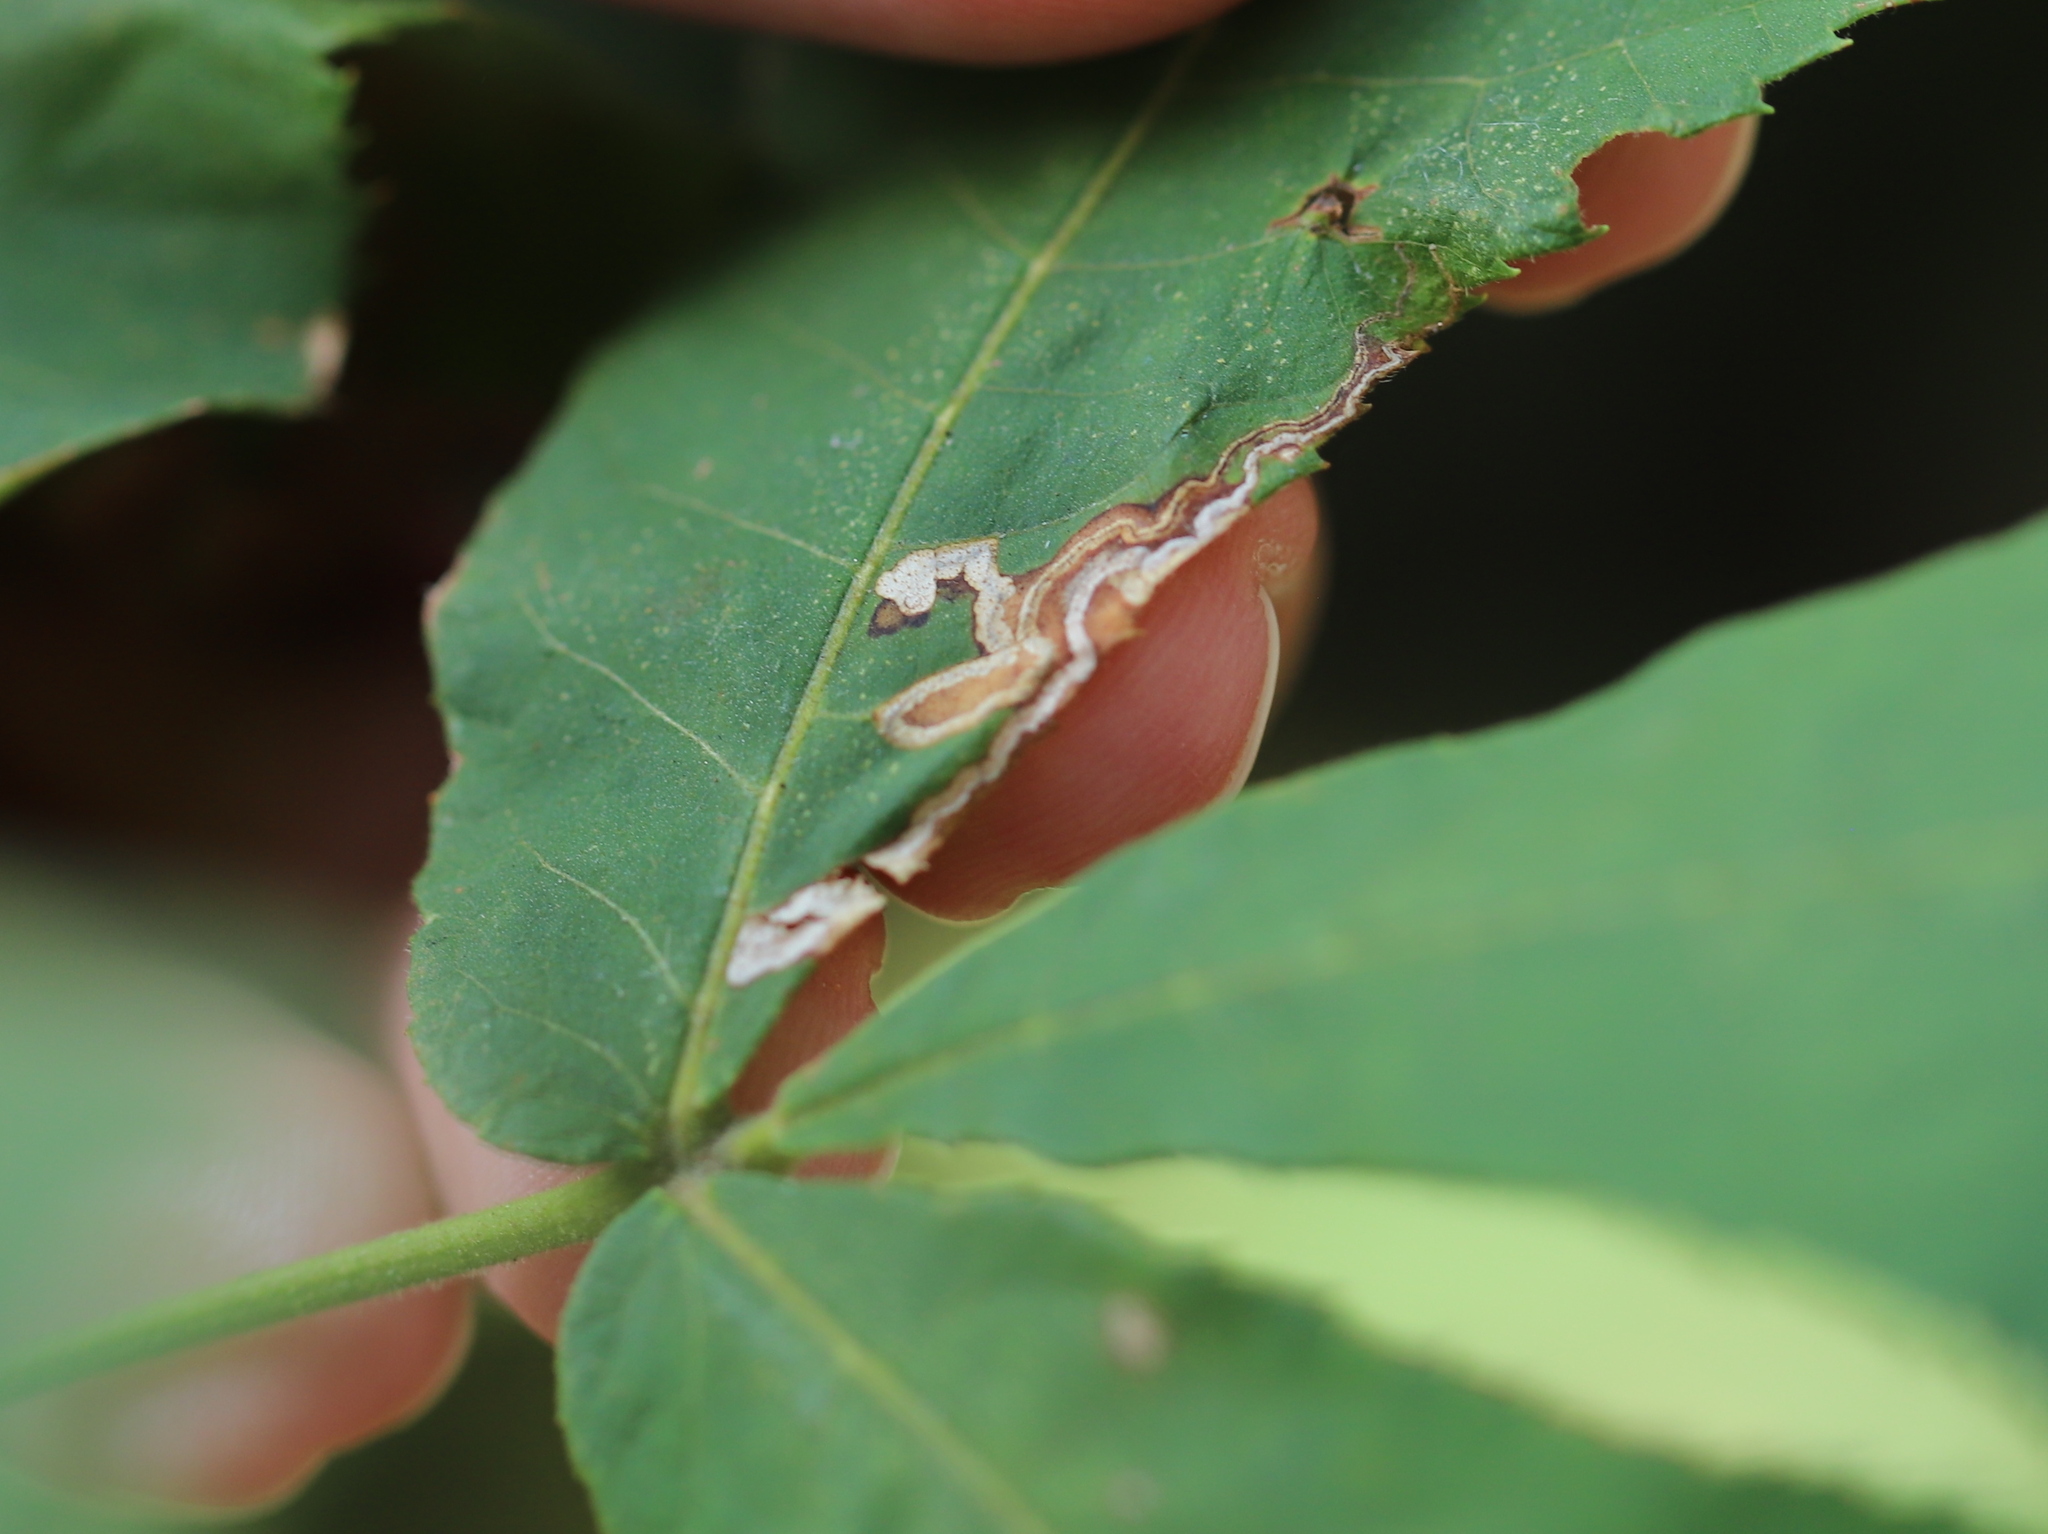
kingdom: Animalia
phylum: Arthropoda
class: Insecta
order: Lepidoptera
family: Nepticulidae
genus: Stigmella
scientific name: Stigmella caryaefoliella
